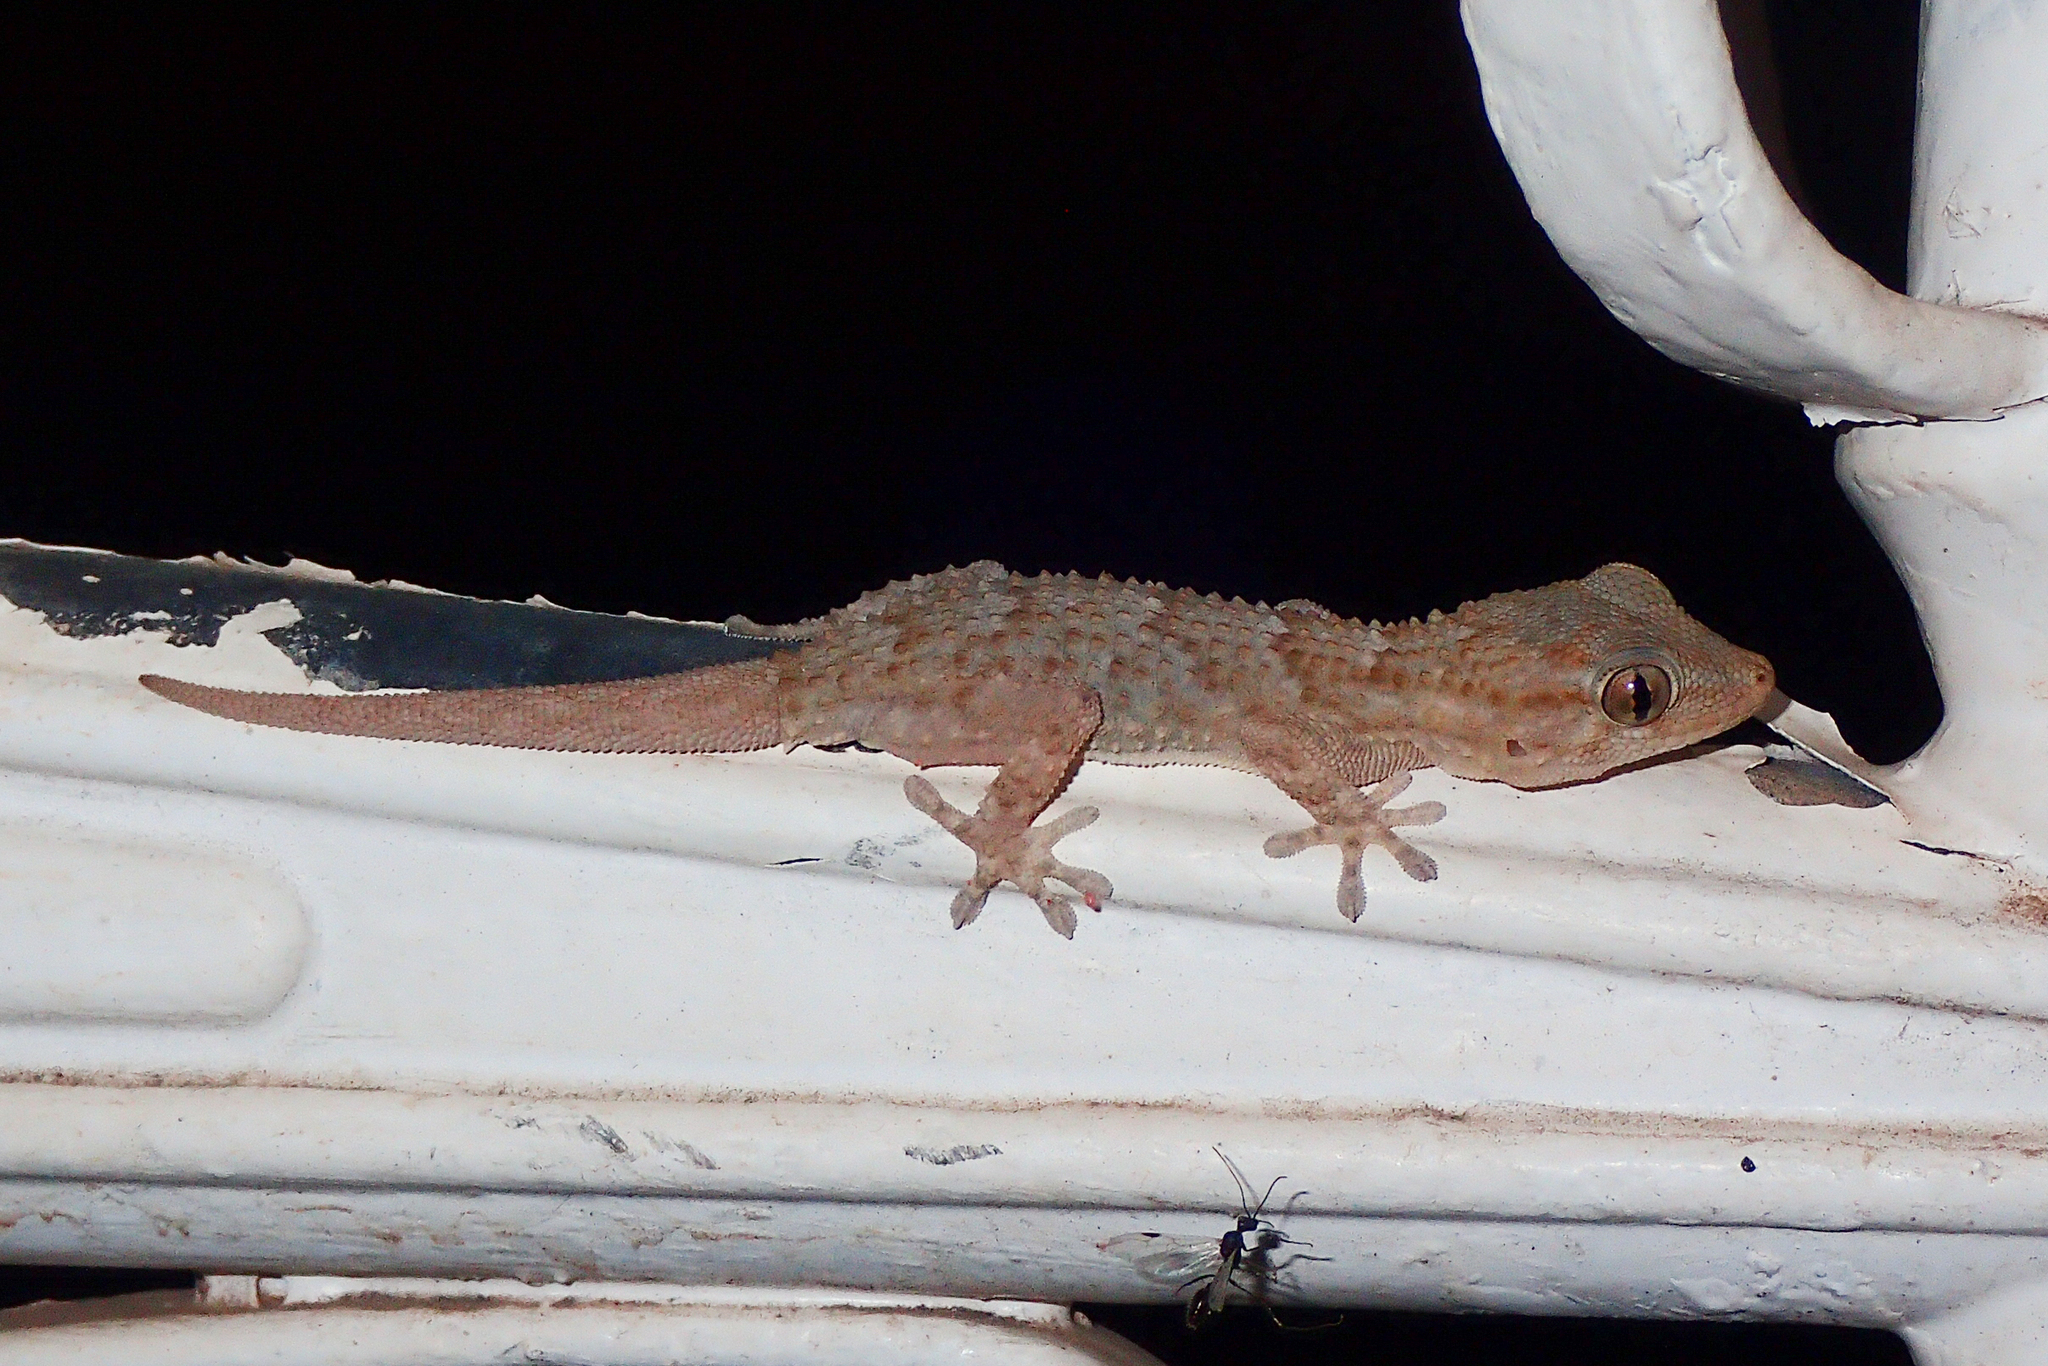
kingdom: Animalia
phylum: Chordata
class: Squamata
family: Phyllodactylidae
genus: Tarentola
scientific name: Tarentola mauritanica
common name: Moorish gecko
